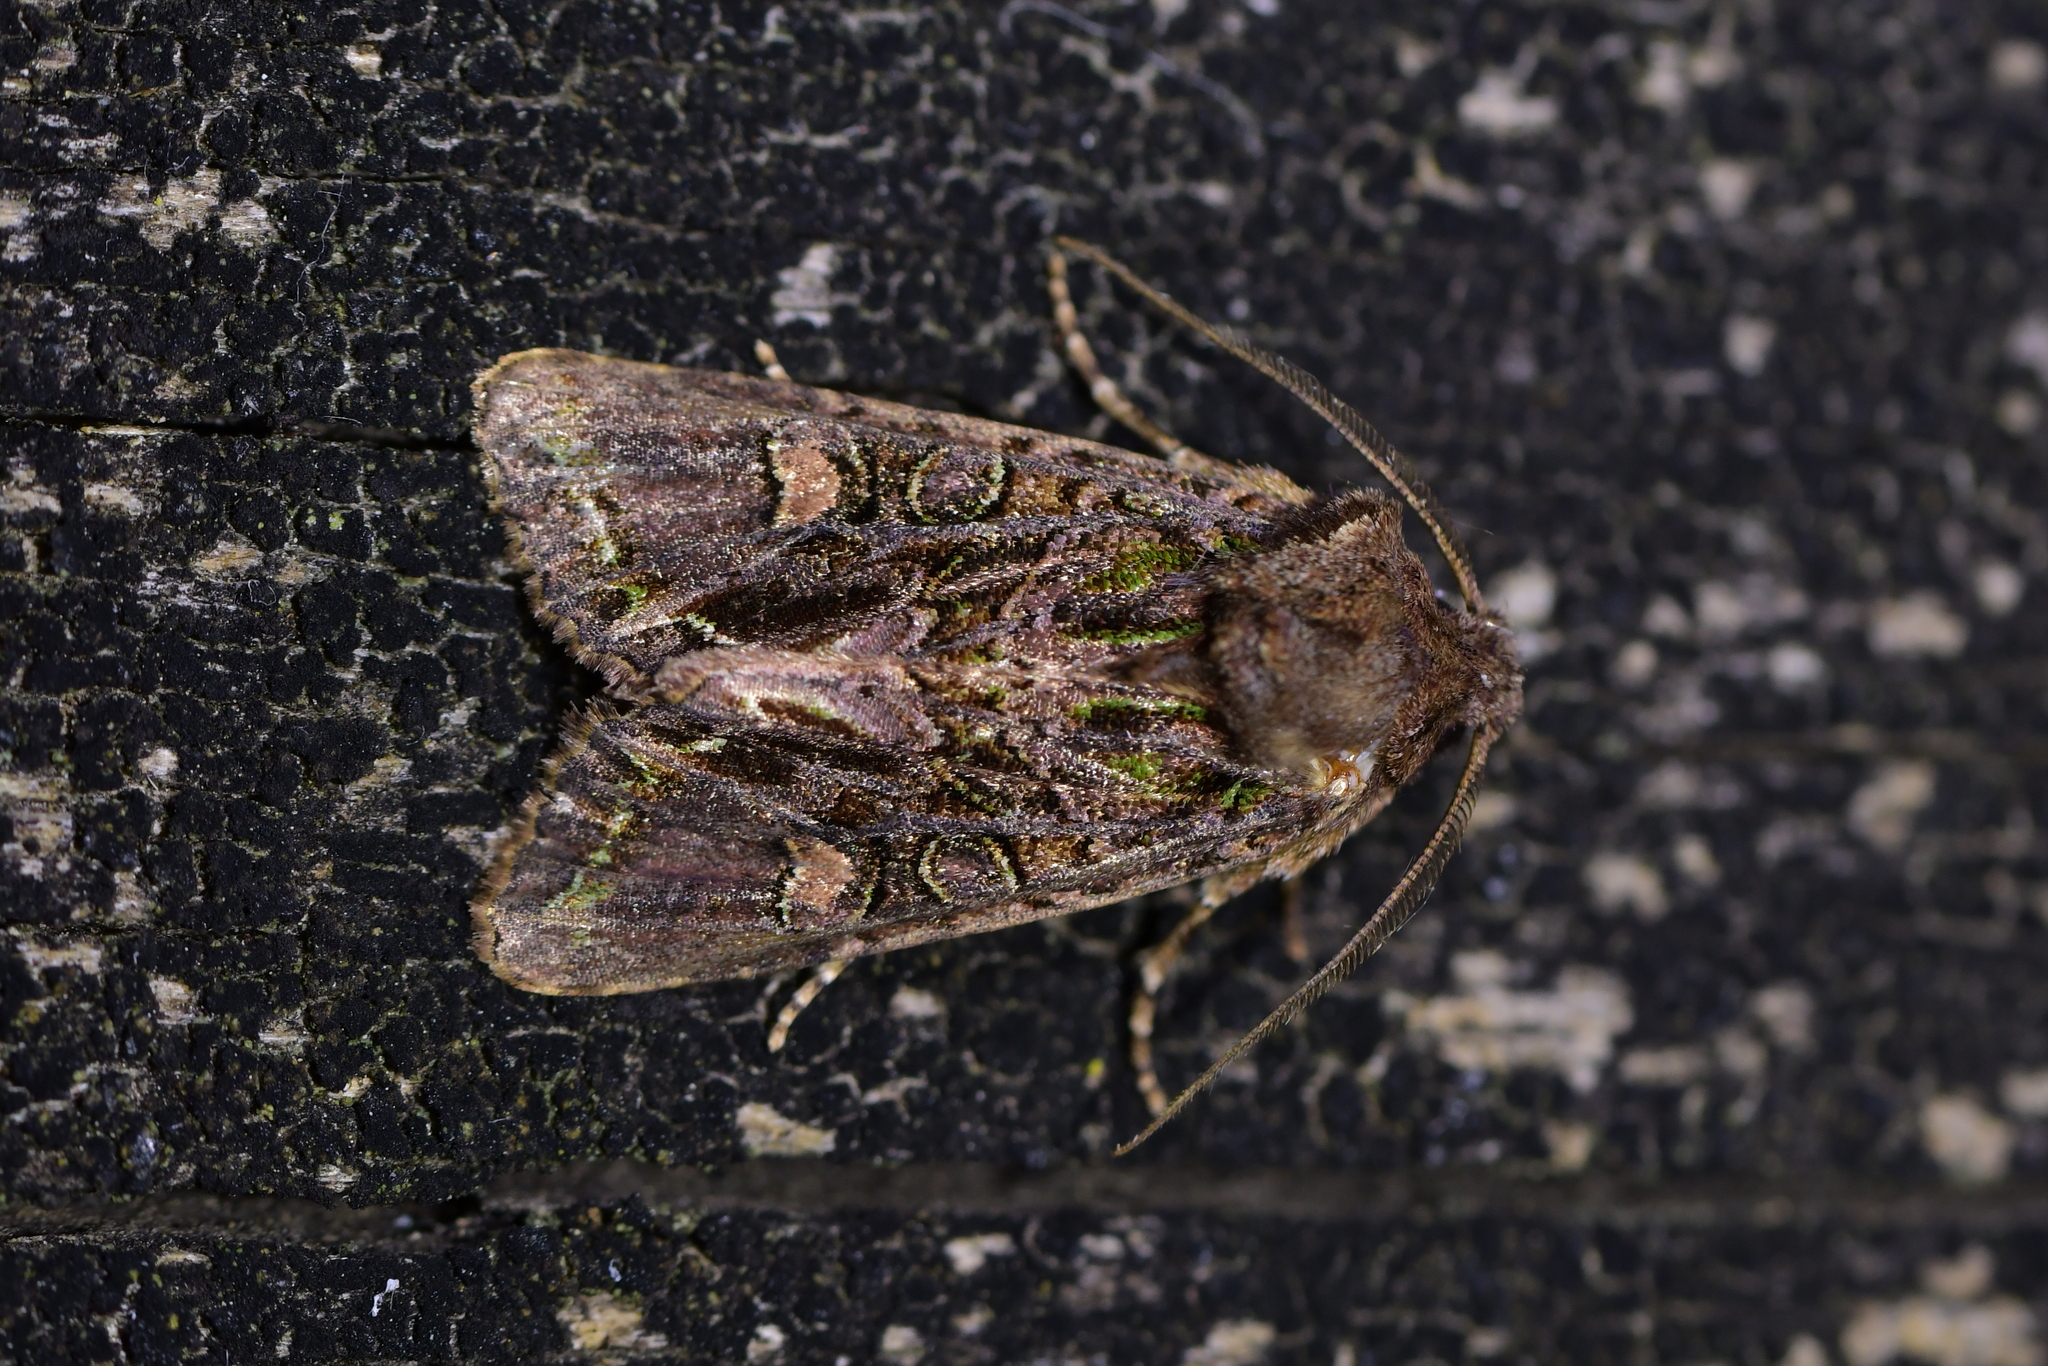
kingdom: Animalia
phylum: Arthropoda
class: Insecta
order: Lepidoptera
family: Noctuidae
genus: Ichneutica
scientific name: Ichneutica insignis
